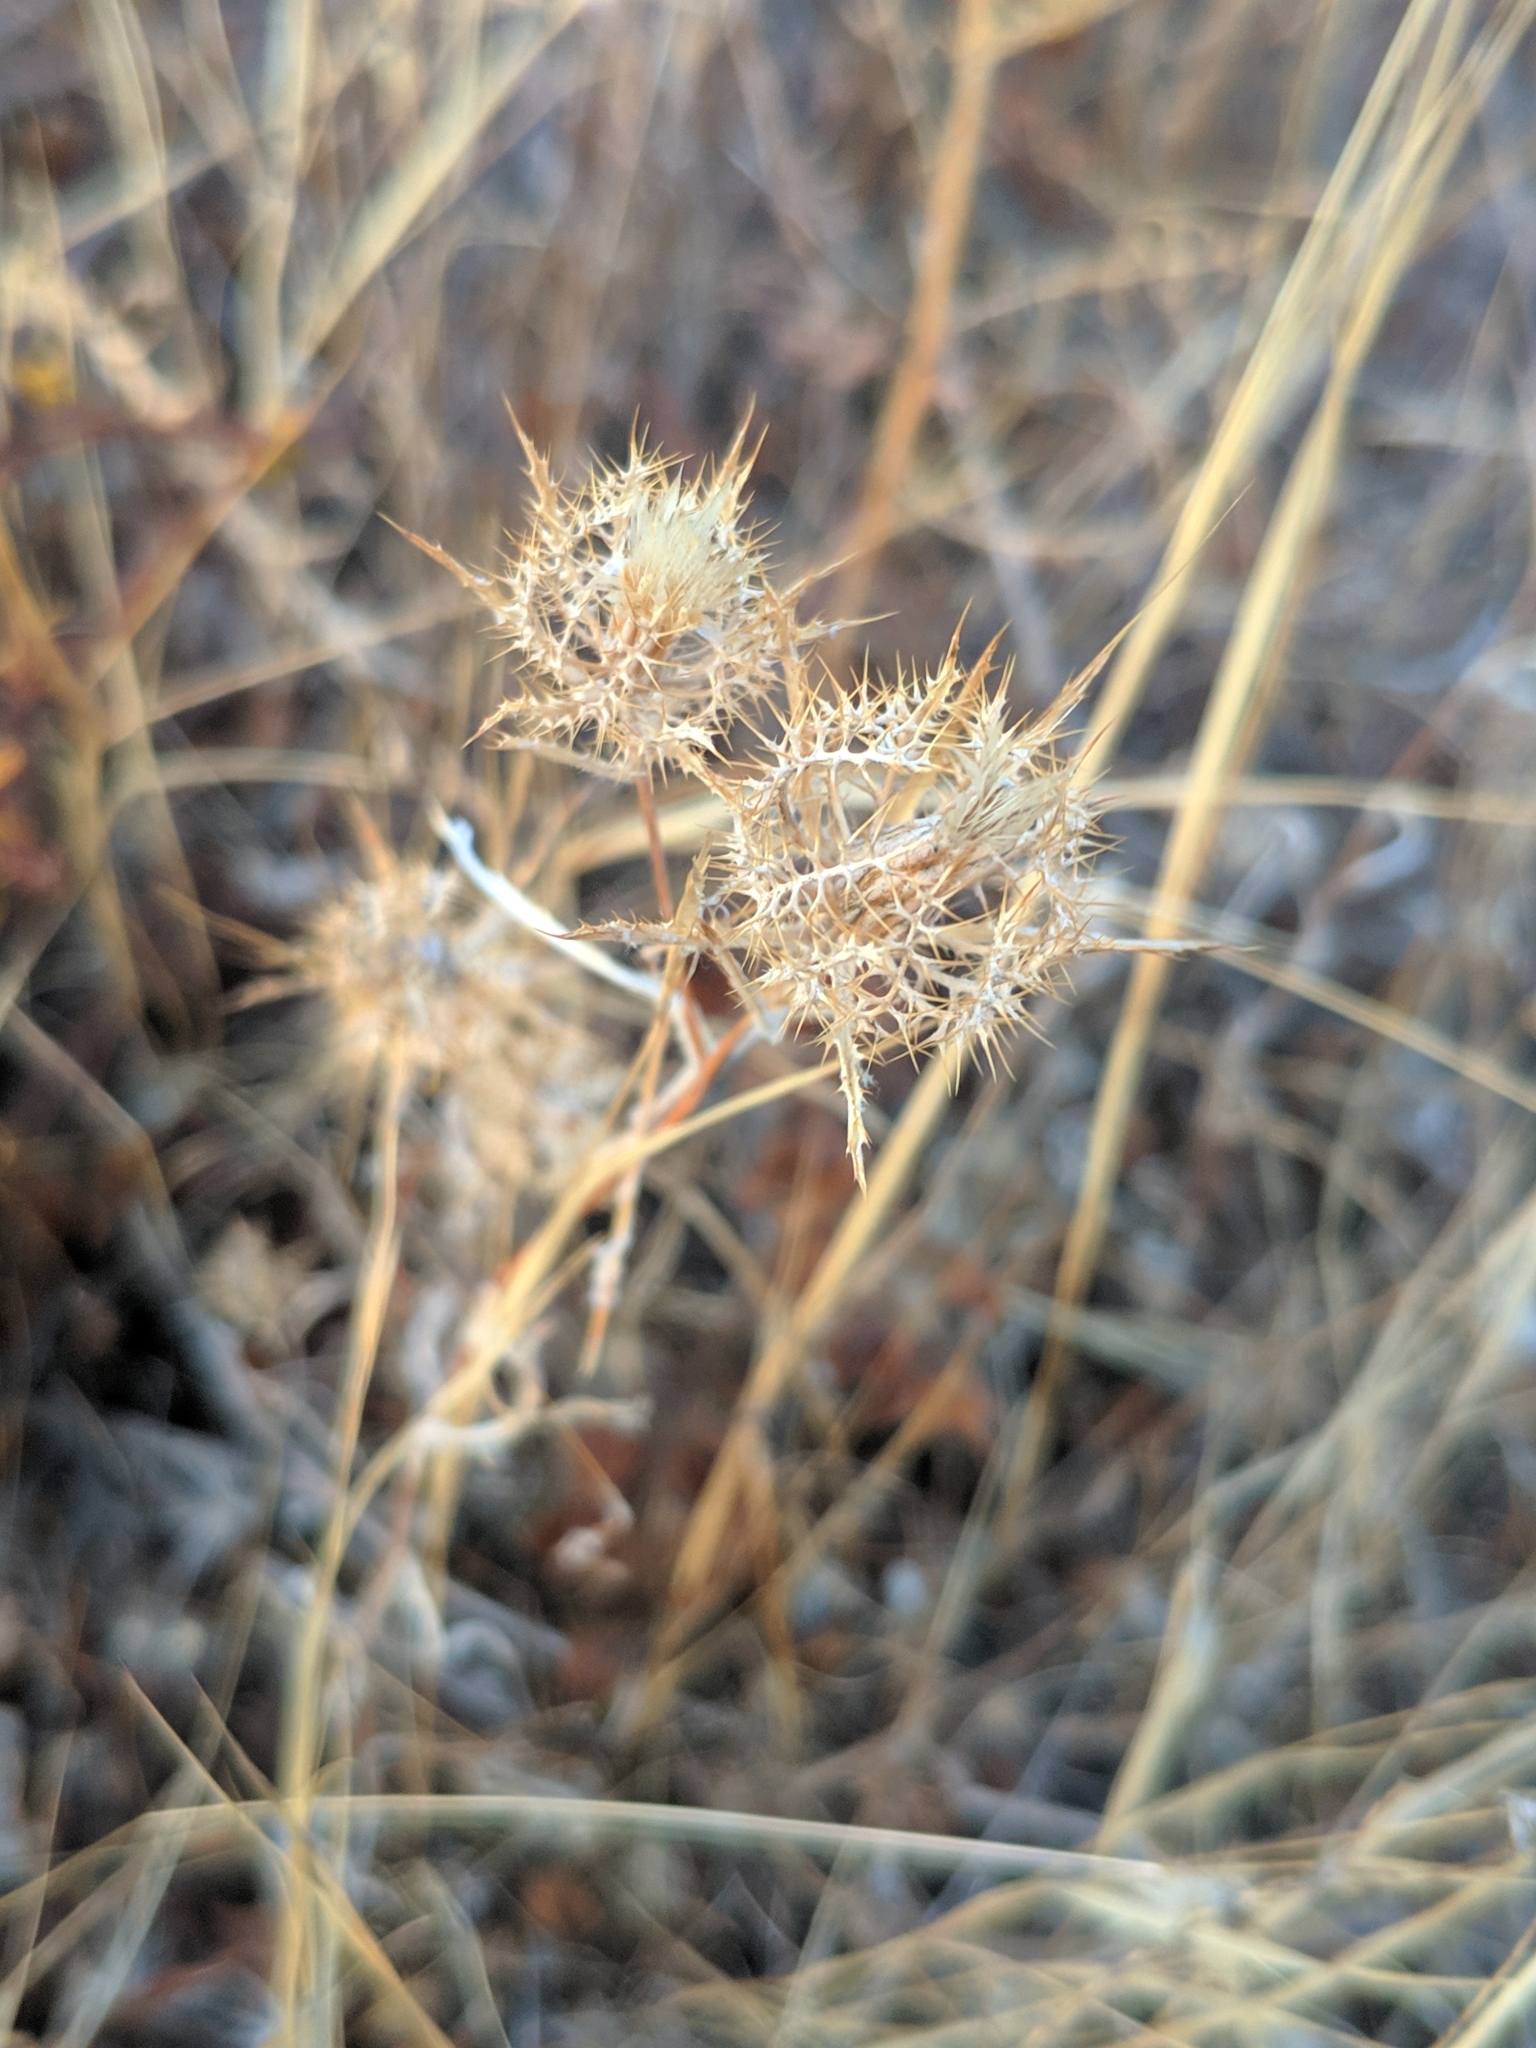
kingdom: Plantae
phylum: Tracheophyta
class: Magnoliopsida
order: Asterales
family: Asteraceae
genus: Atractylis
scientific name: Atractylis cancellata
